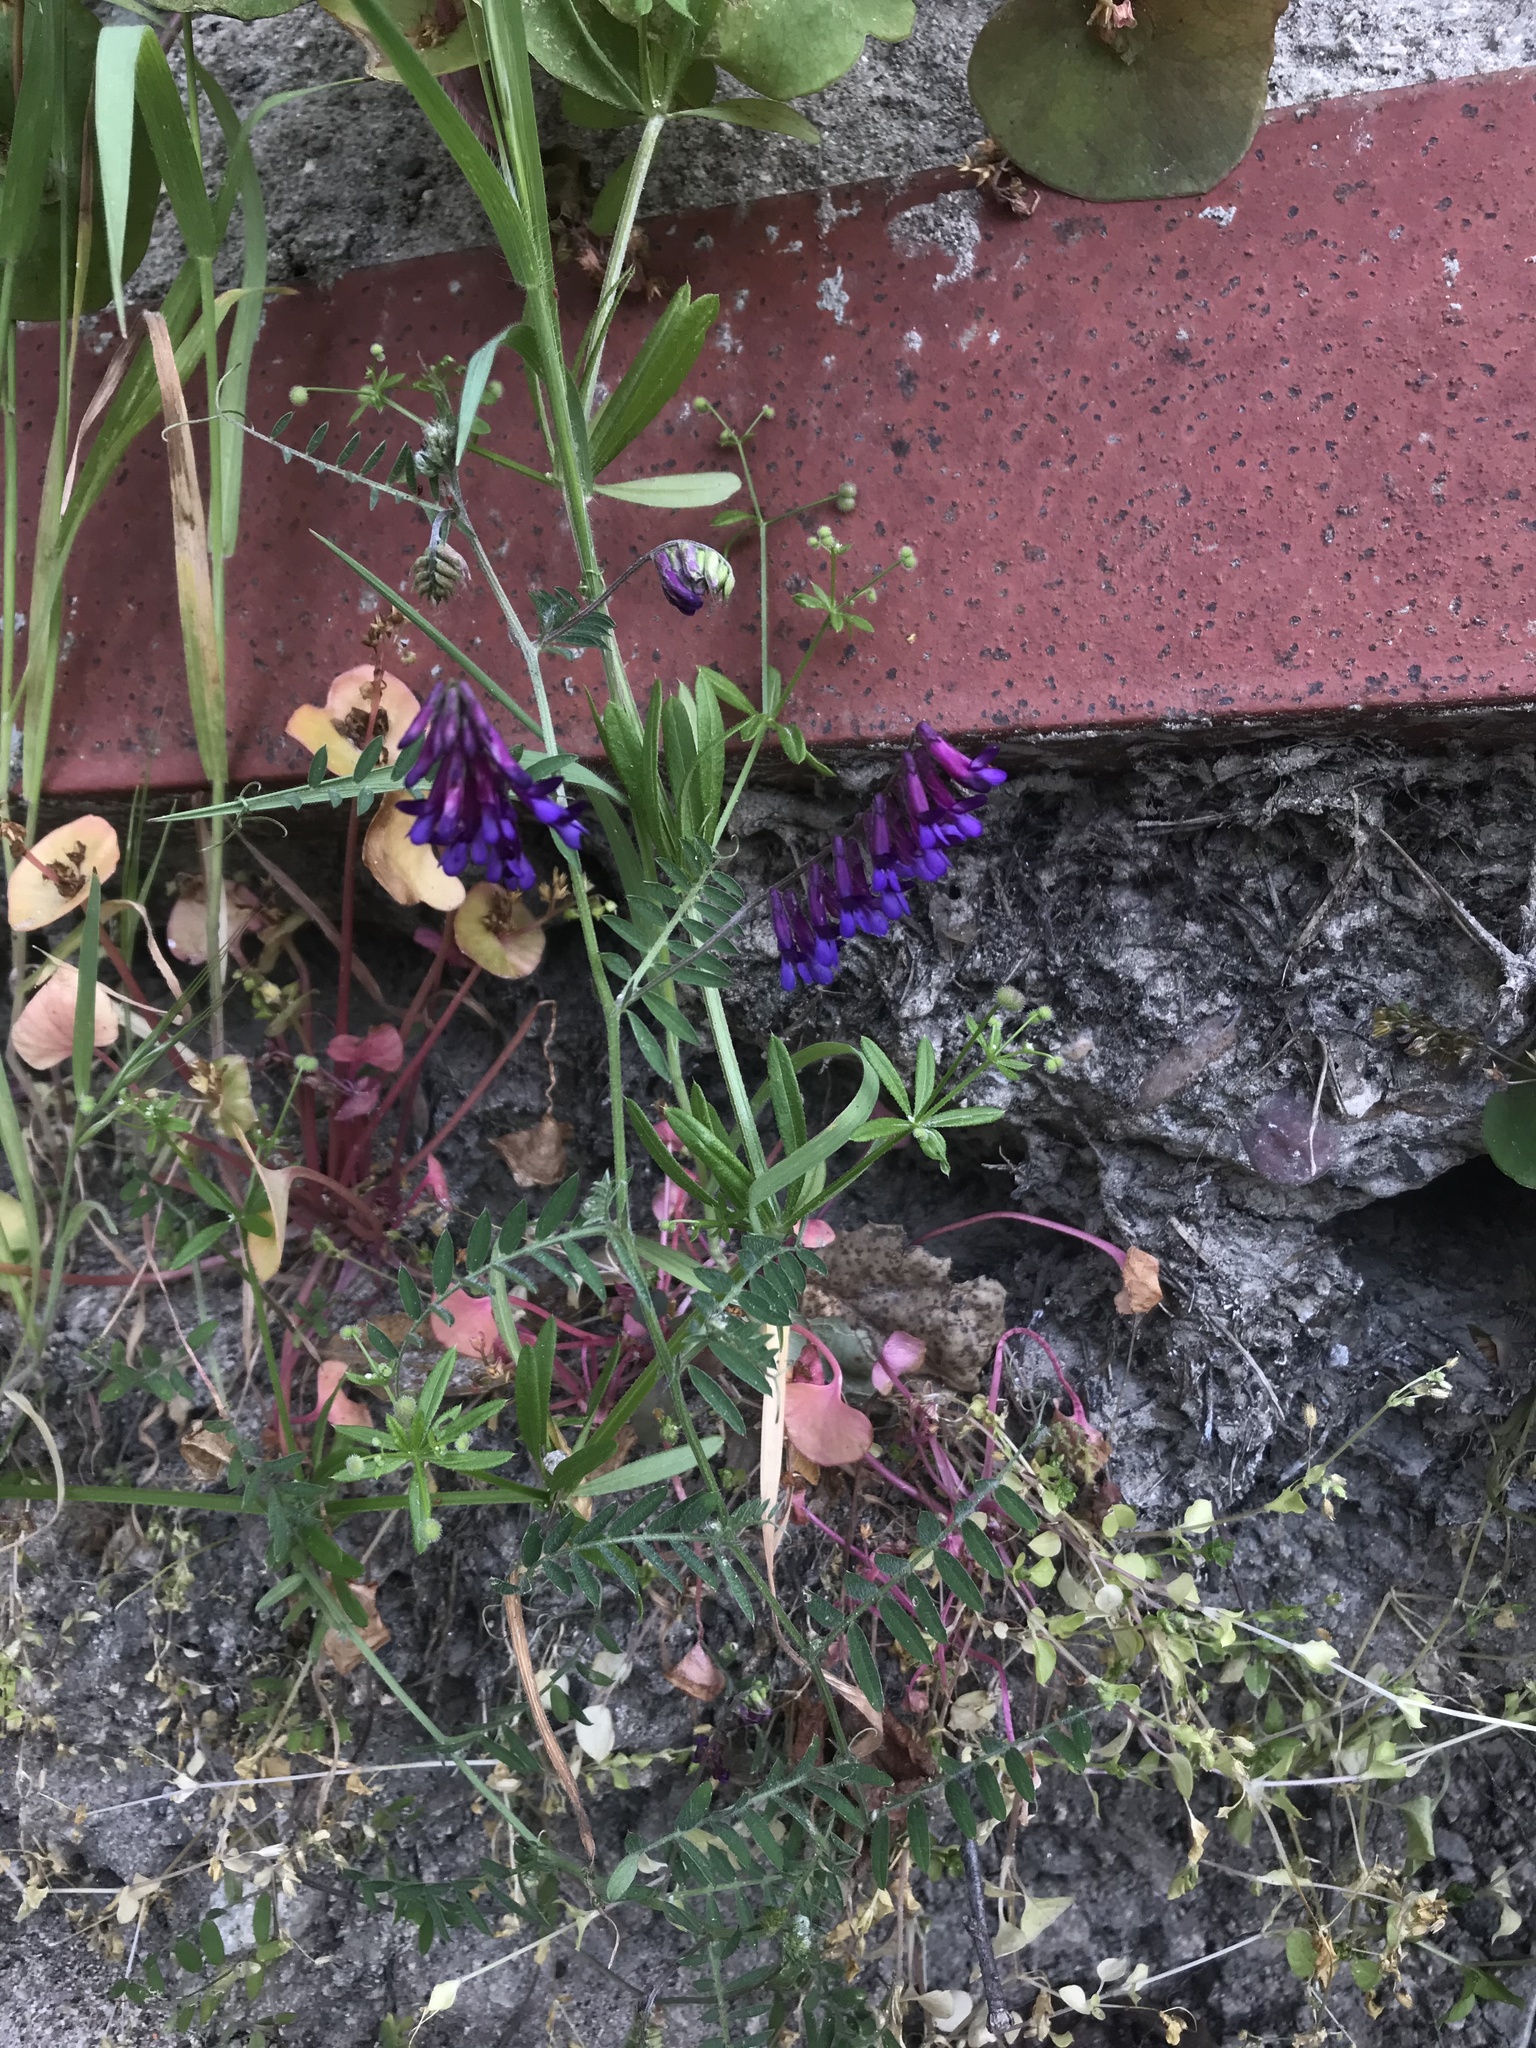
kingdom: Plantae
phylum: Tracheophyta
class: Magnoliopsida
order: Fabales
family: Fabaceae
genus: Vicia
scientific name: Vicia villosa
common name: Fodder vetch
